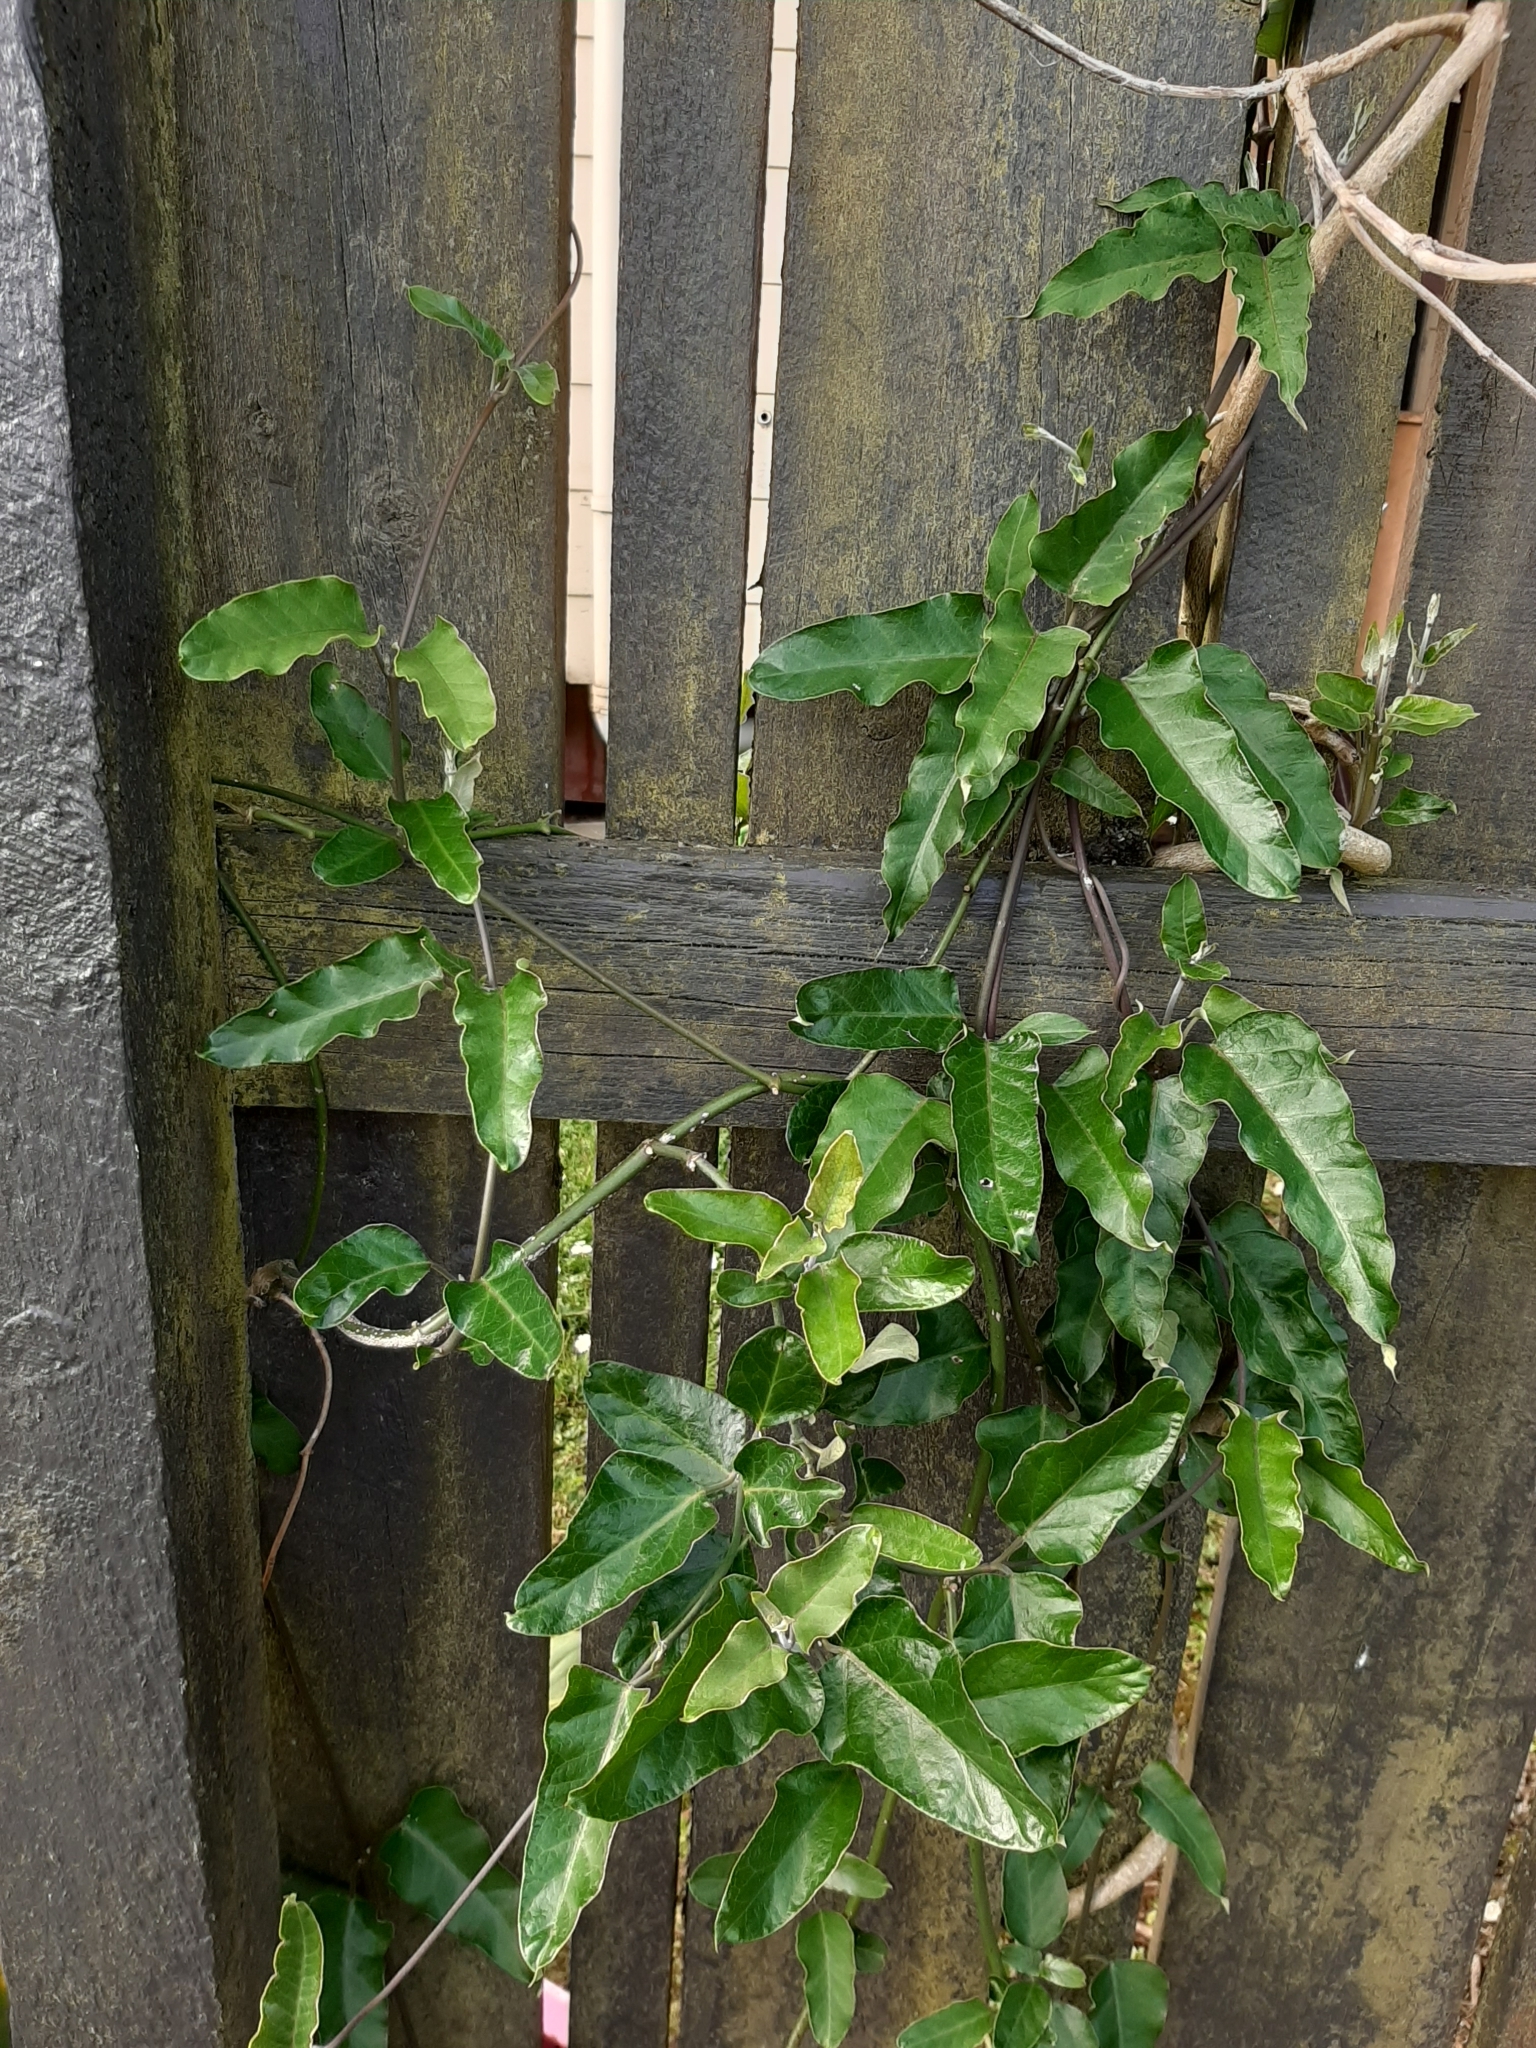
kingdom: Plantae
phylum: Tracheophyta
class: Magnoliopsida
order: Gentianales
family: Apocynaceae
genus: Araujia
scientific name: Araujia sericifera
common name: White bladderflower
